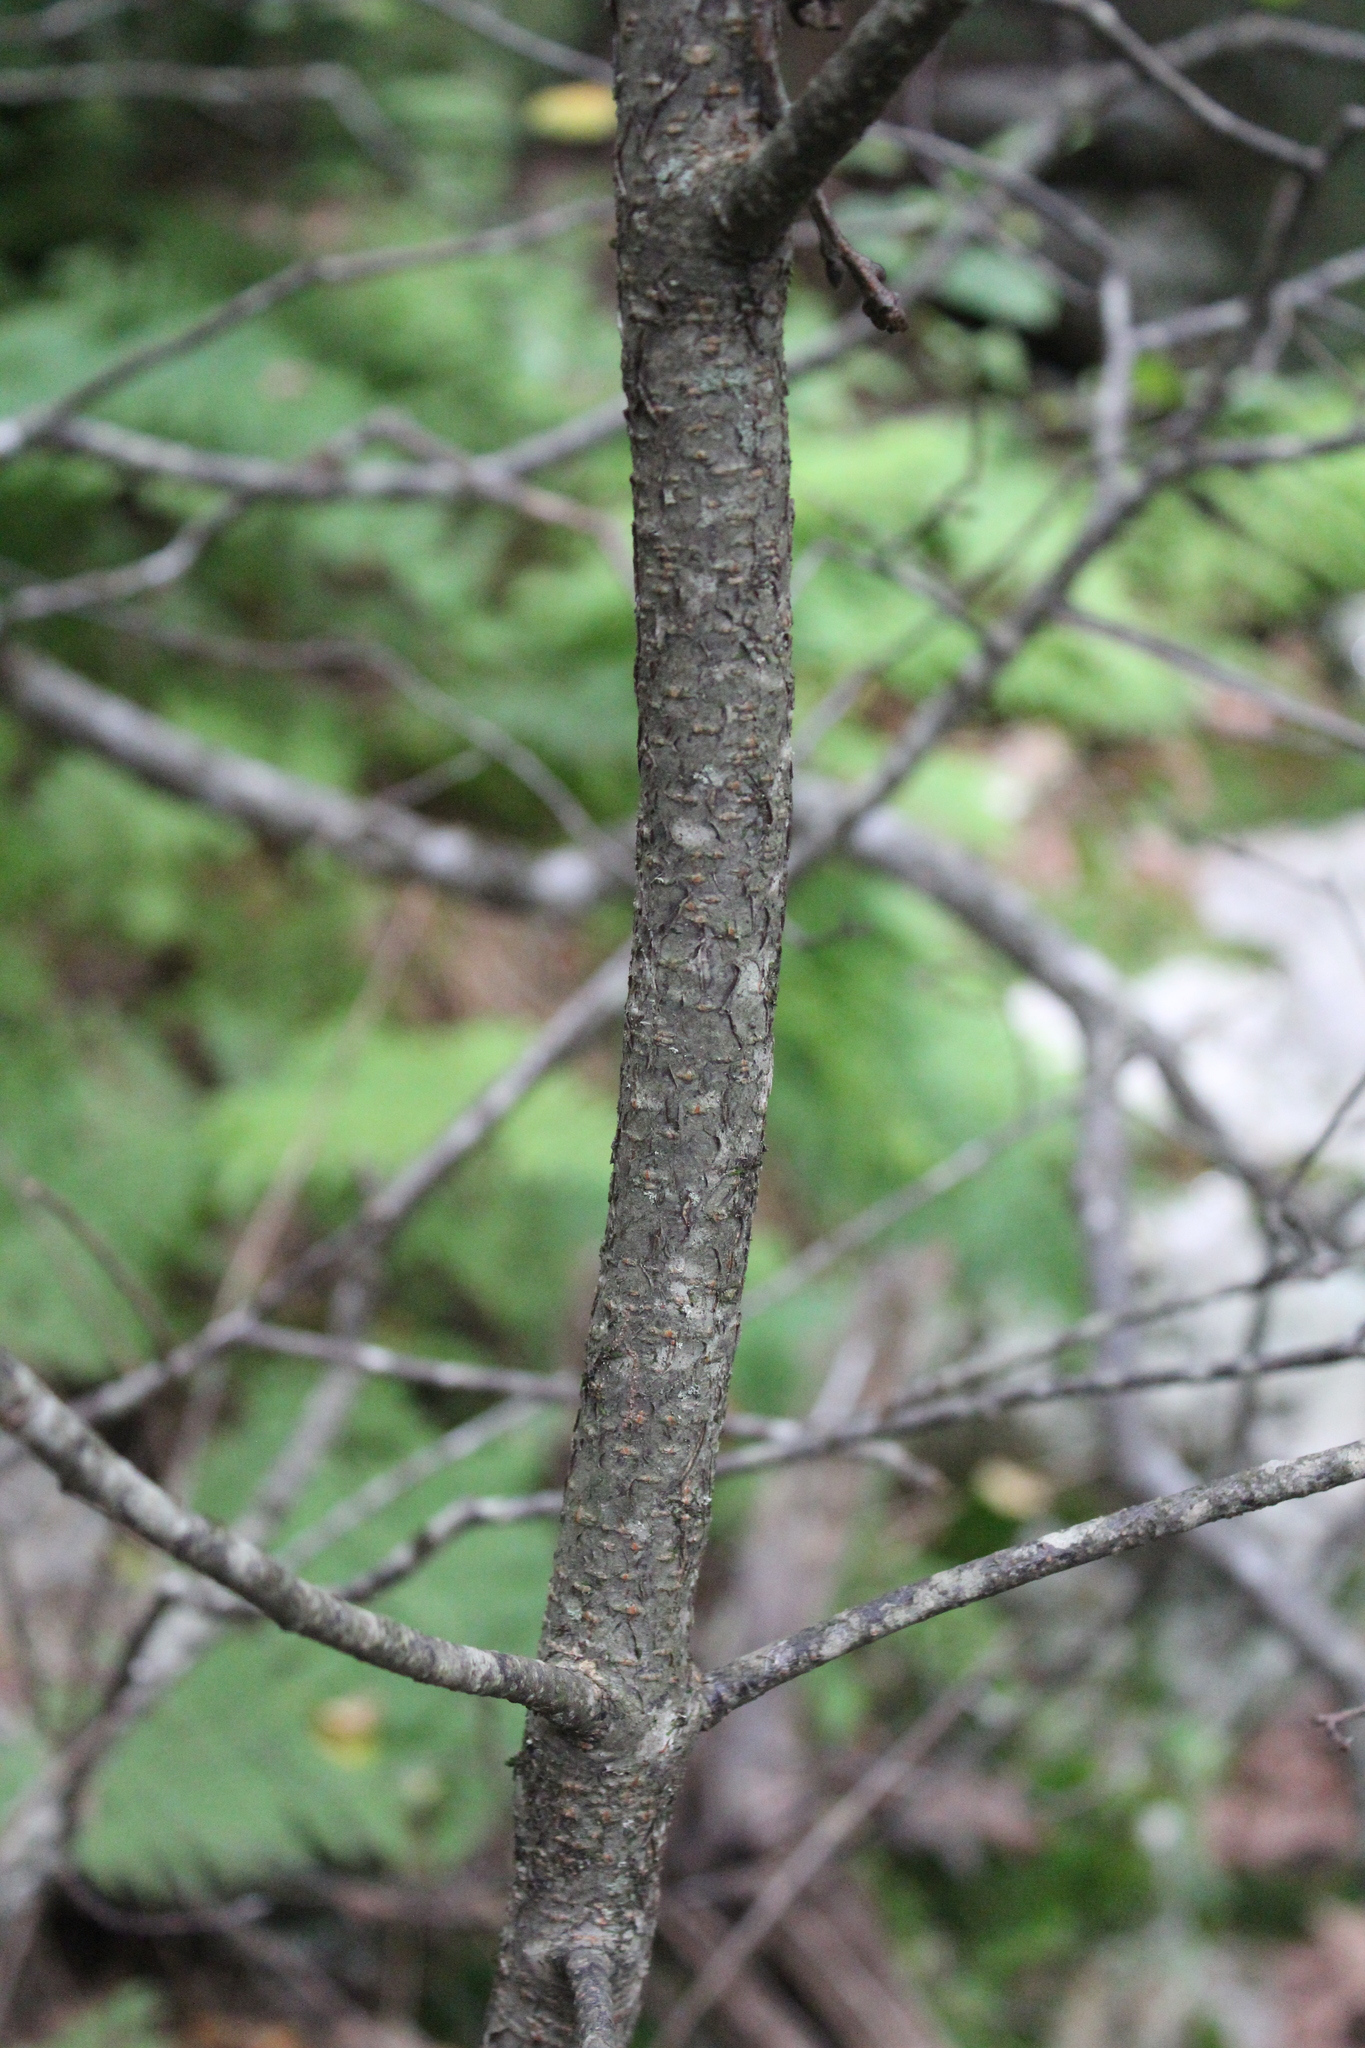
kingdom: Plantae
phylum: Tracheophyta
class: Magnoliopsida
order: Rosales
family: Rosaceae
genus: Prunus
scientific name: Prunus virginiana
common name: Chokecherry
